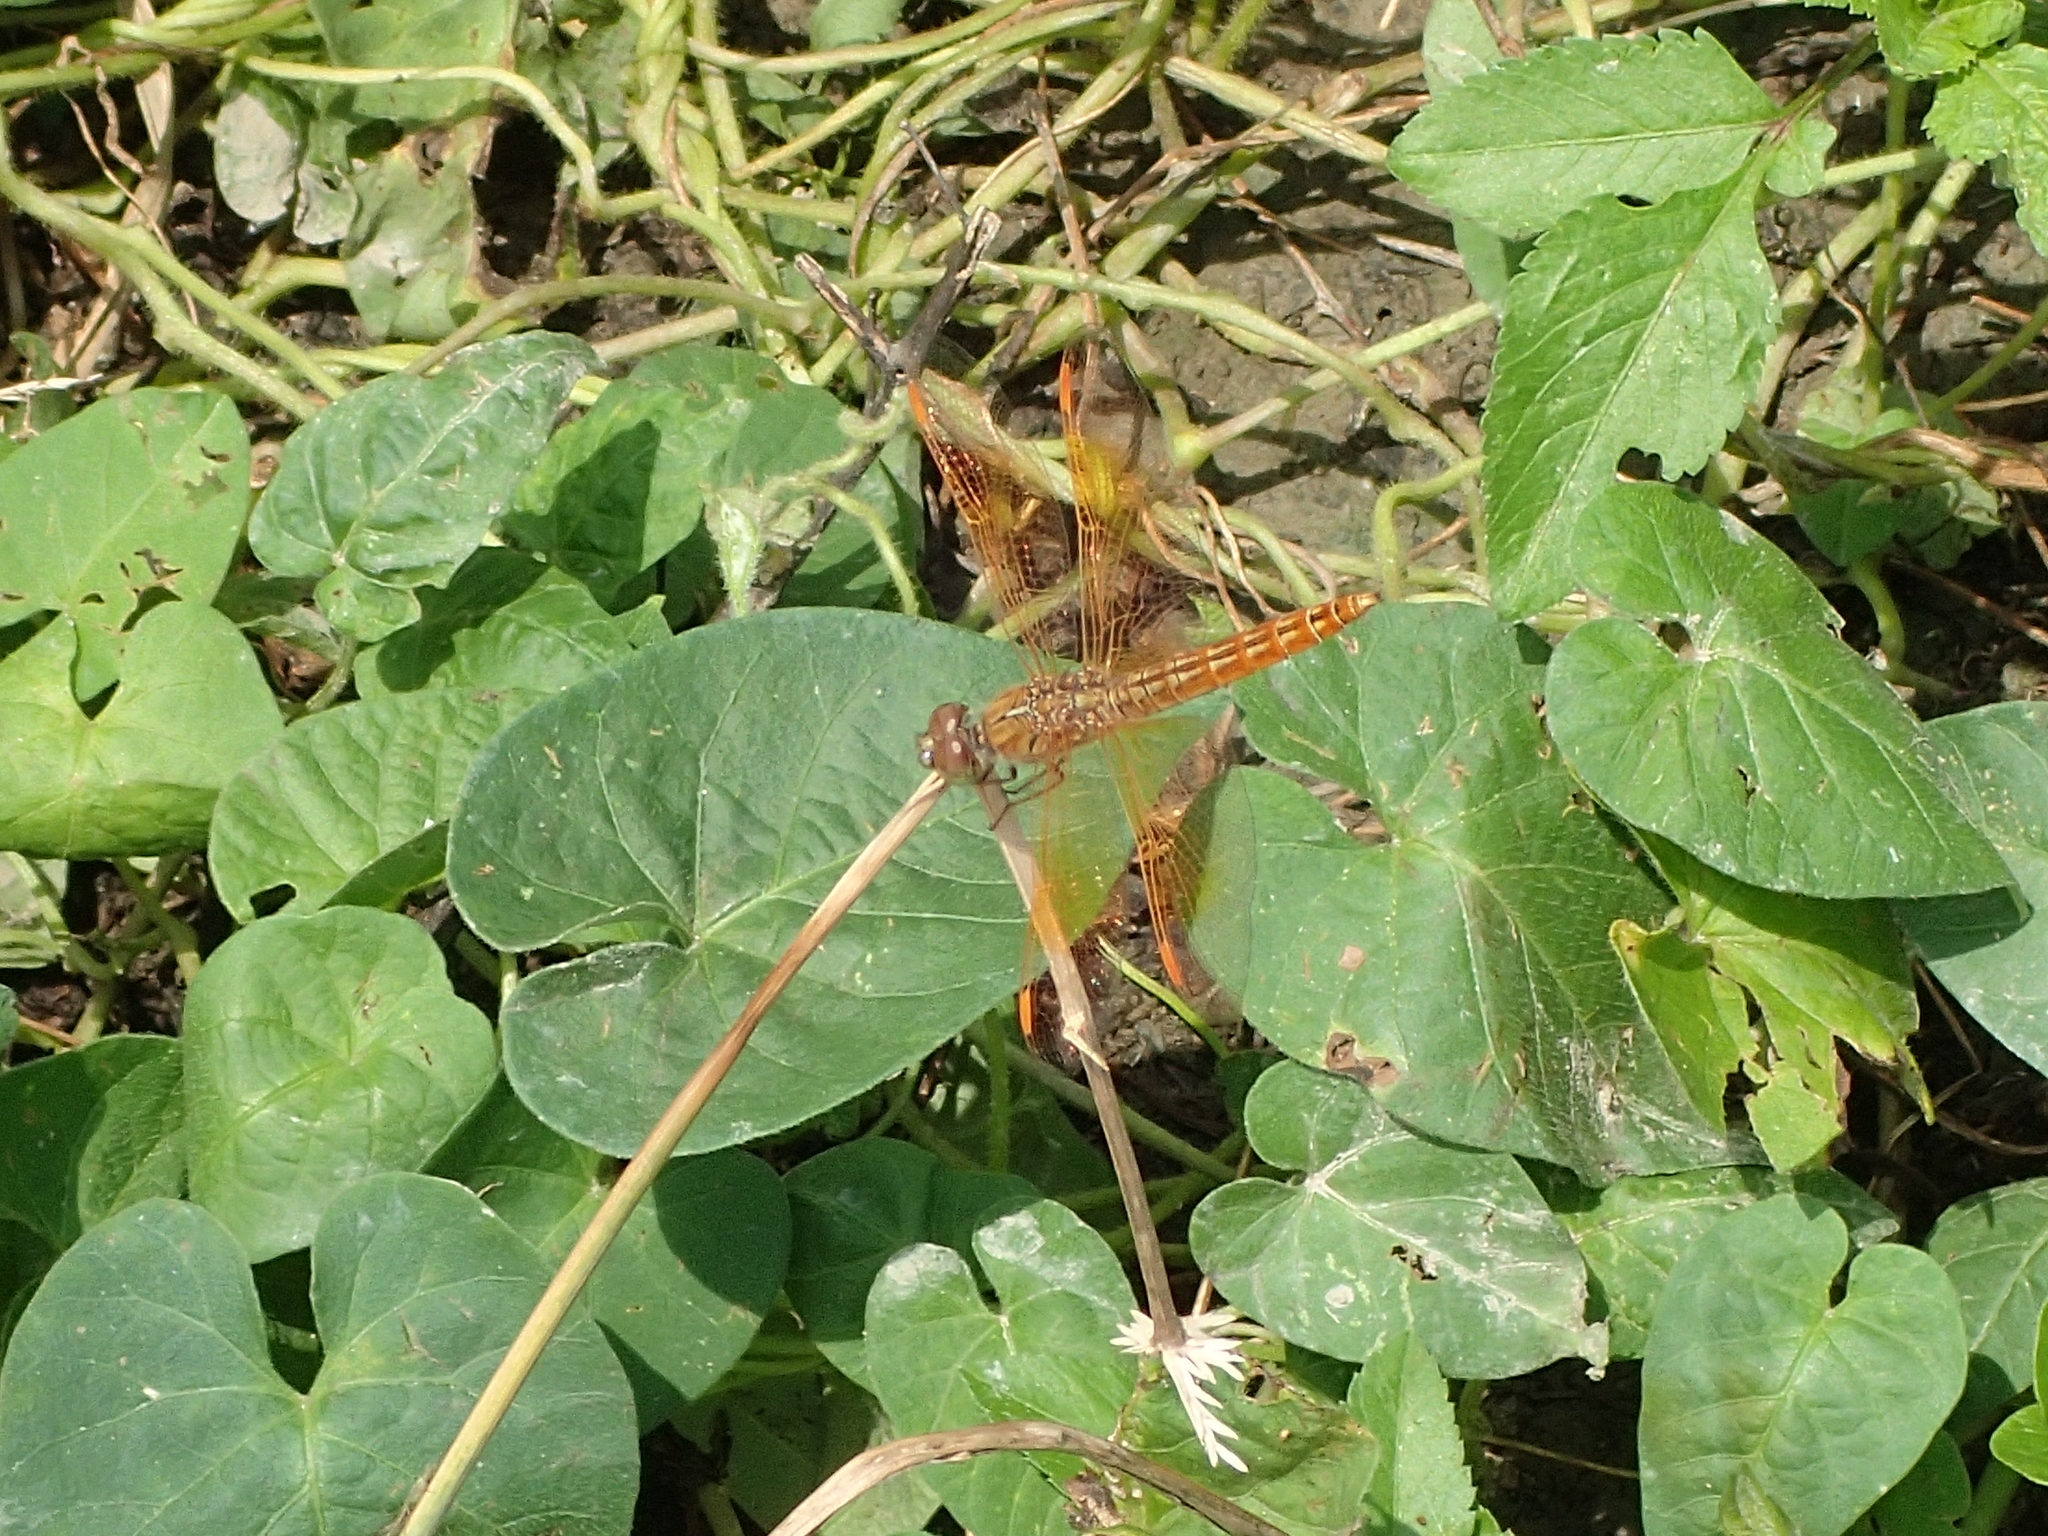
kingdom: Animalia
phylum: Arthropoda
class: Insecta
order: Odonata
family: Libellulidae
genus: Brachythemis
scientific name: Brachythemis contaminata
